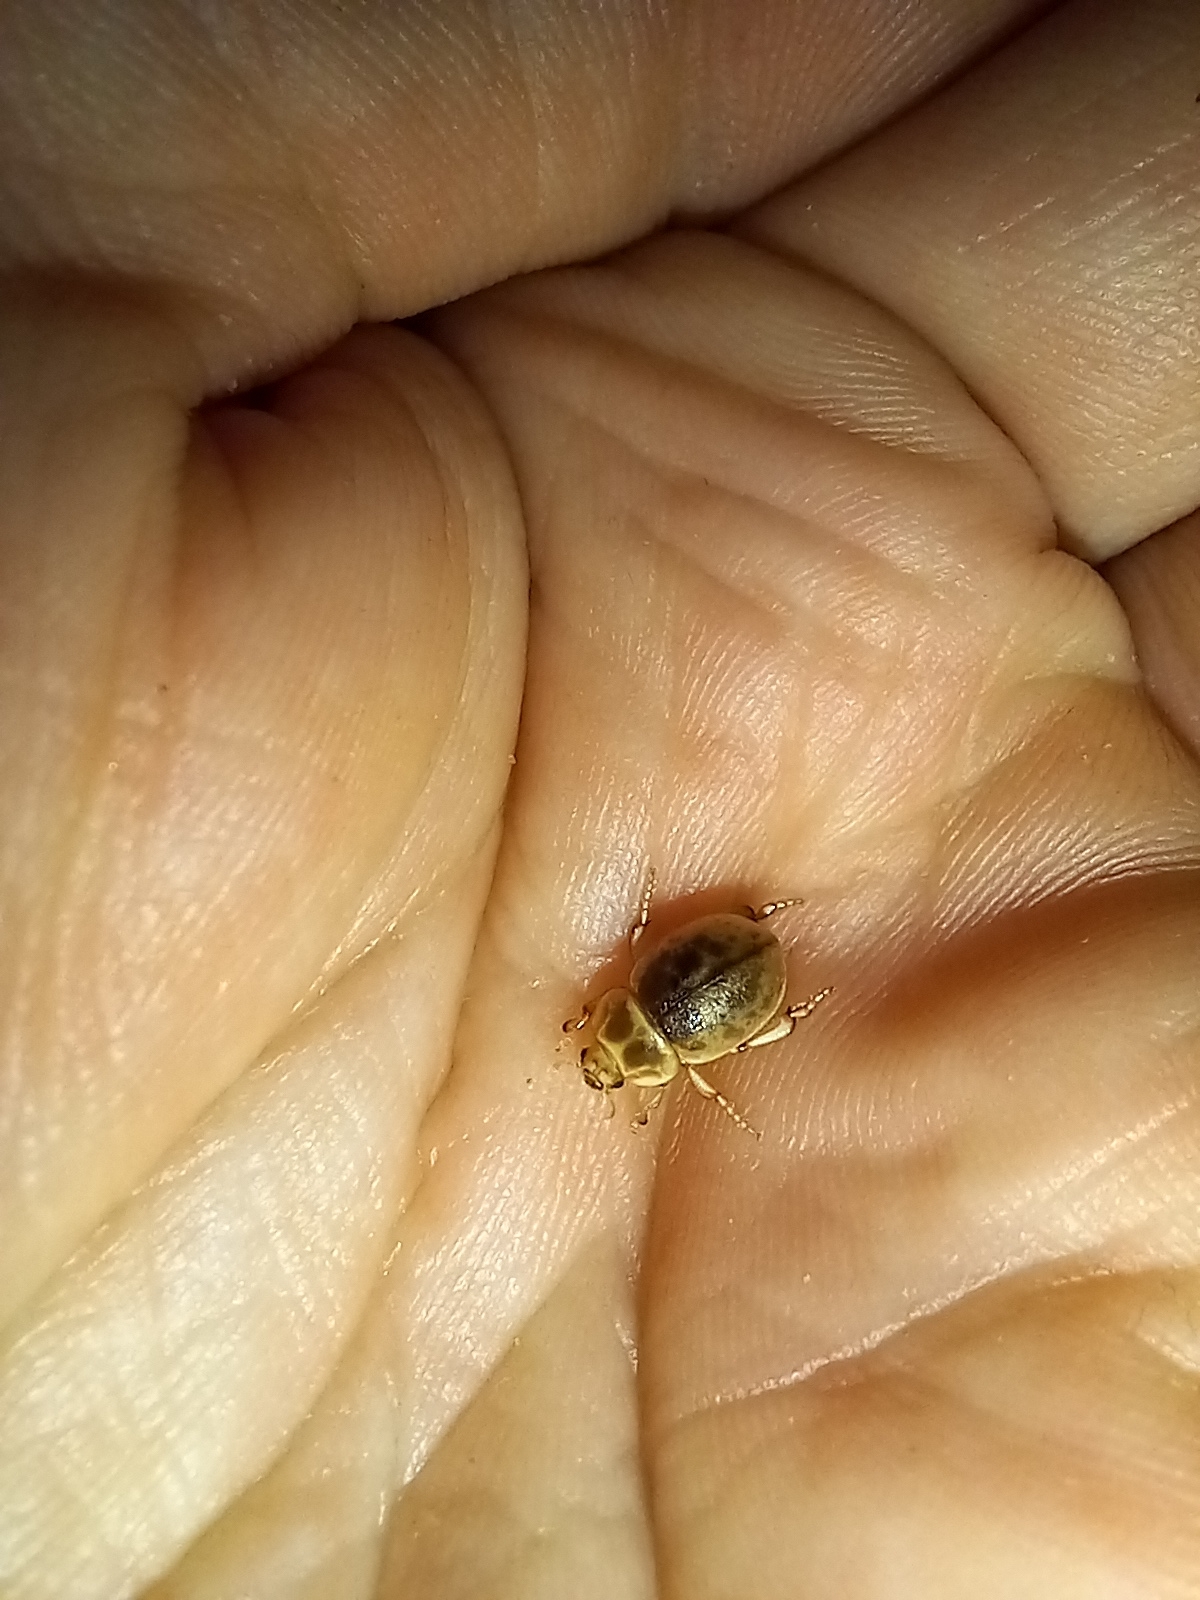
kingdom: Animalia
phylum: Arthropoda
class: Insecta
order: Coleoptera
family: Tenebrionidae
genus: Chaerodes
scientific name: Chaerodes trachyscelides
